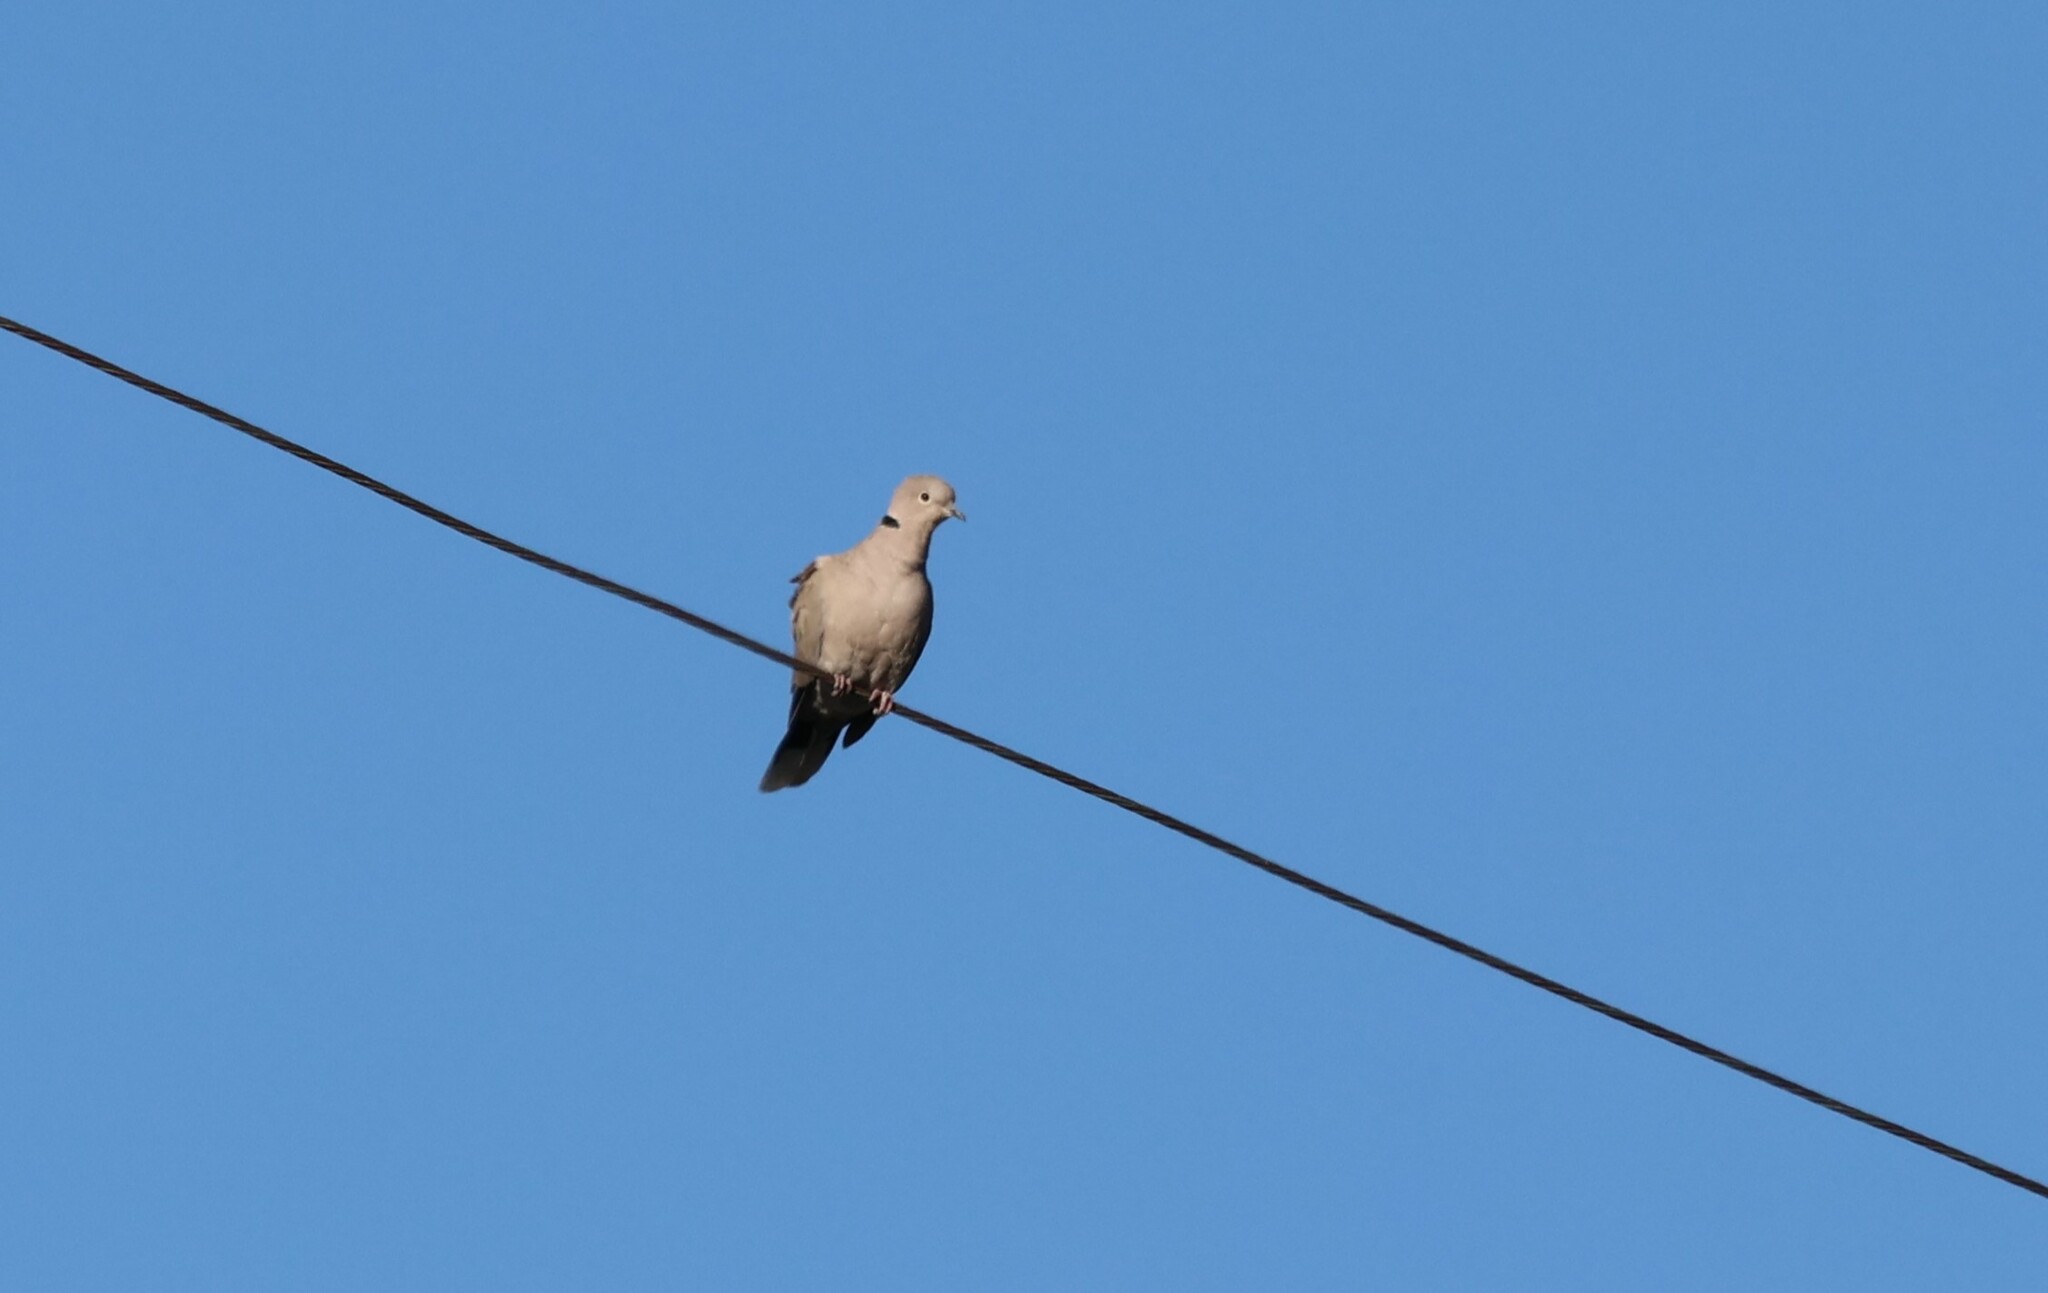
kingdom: Animalia
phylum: Chordata
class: Aves
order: Columbiformes
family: Columbidae
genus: Streptopelia
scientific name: Streptopelia decaocto
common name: Eurasian collared dove
